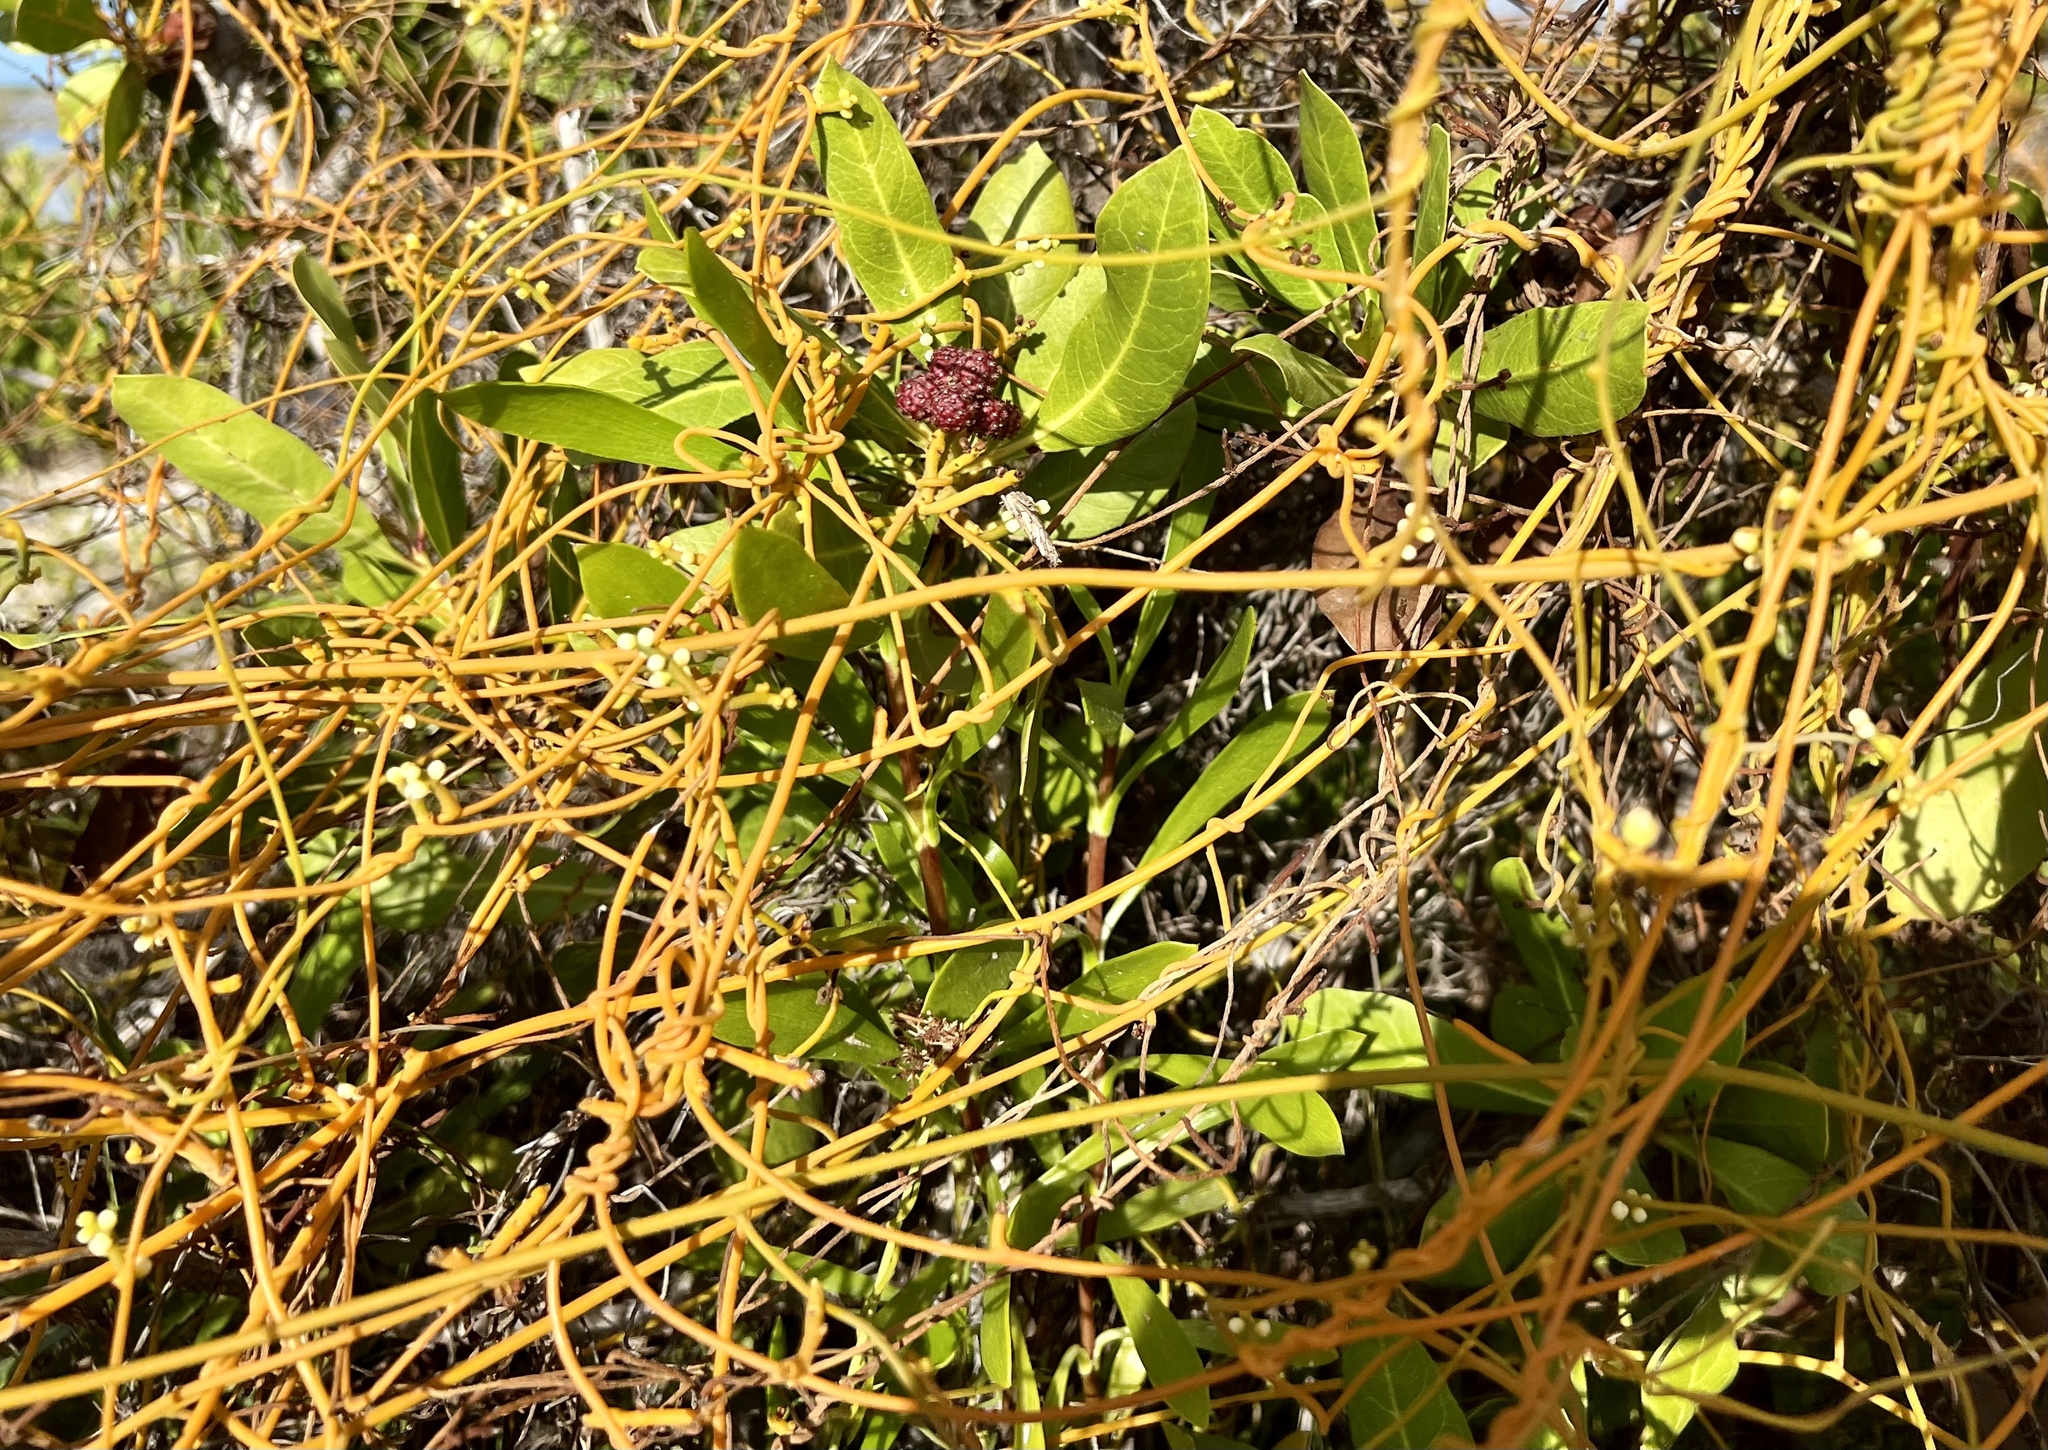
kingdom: Plantae
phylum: Tracheophyta
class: Magnoliopsida
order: Laurales
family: Lauraceae
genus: Cassytha
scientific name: Cassytha filiformis
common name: Dodder-laurel
